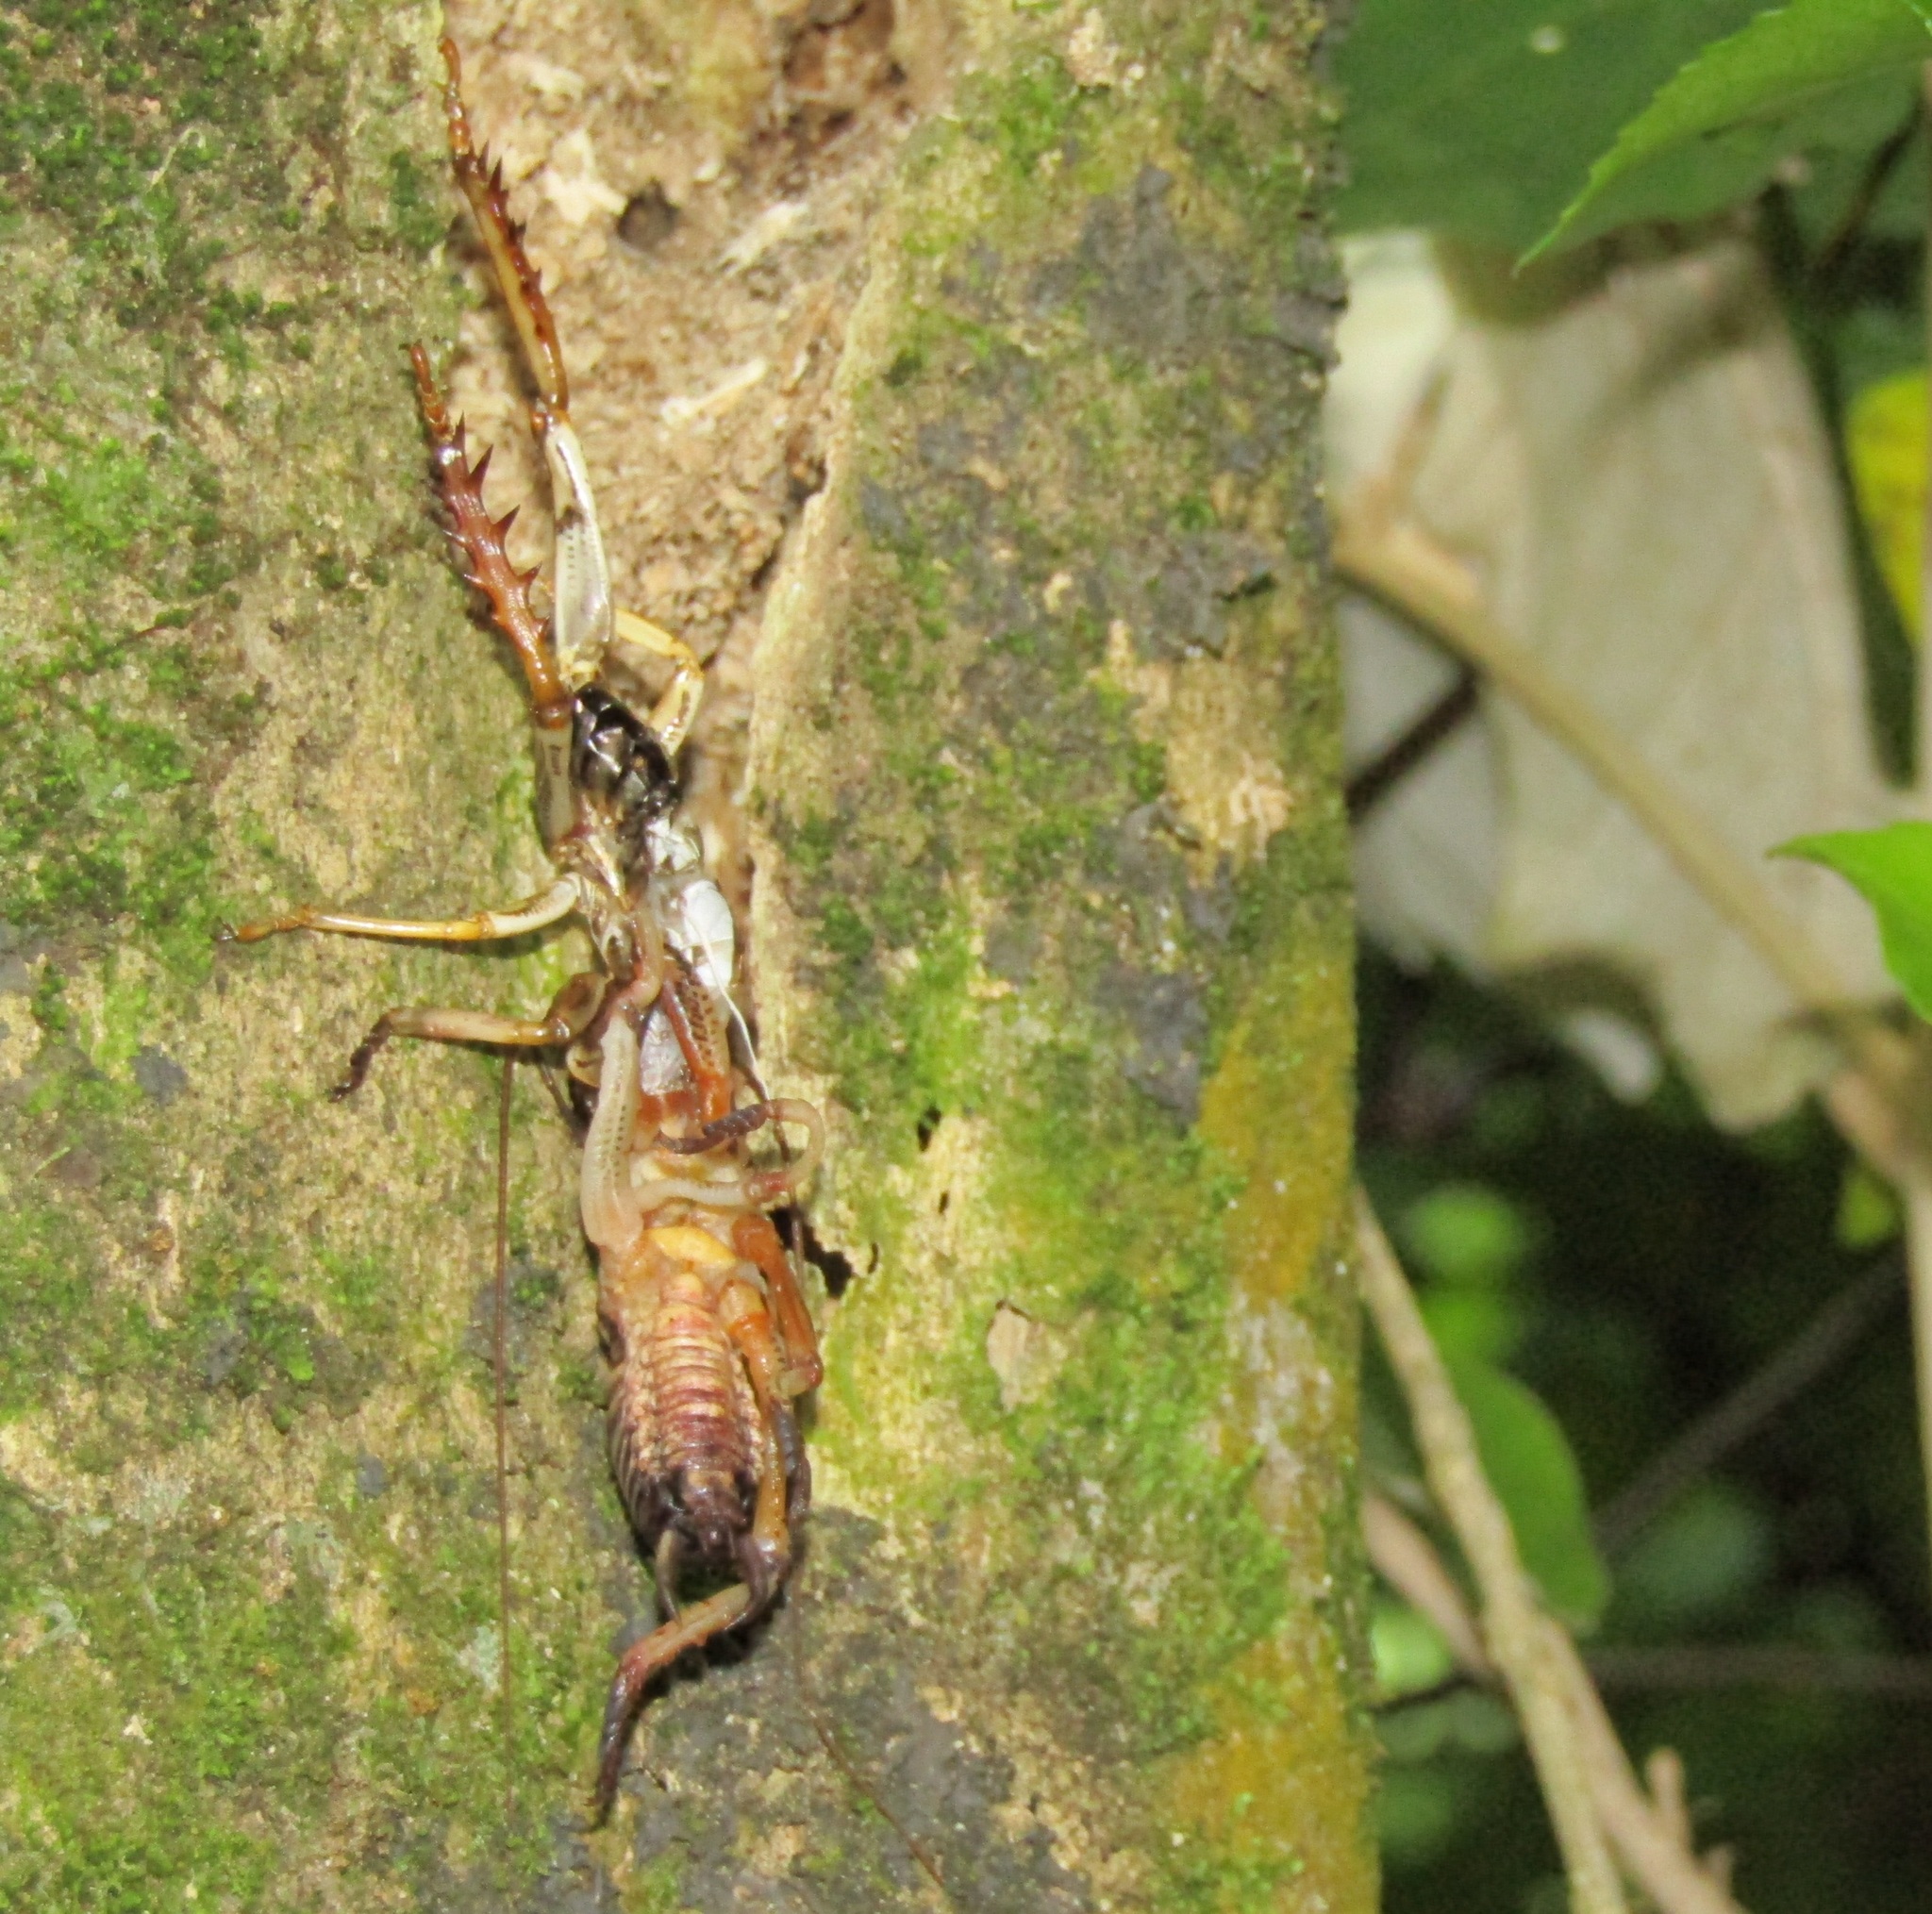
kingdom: Animalia
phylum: Arthropoda
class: Insecta
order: Orthoptera
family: Anostostomatidae
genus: Hemideina
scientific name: Hemideina crassidens
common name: Wellington tree weta
